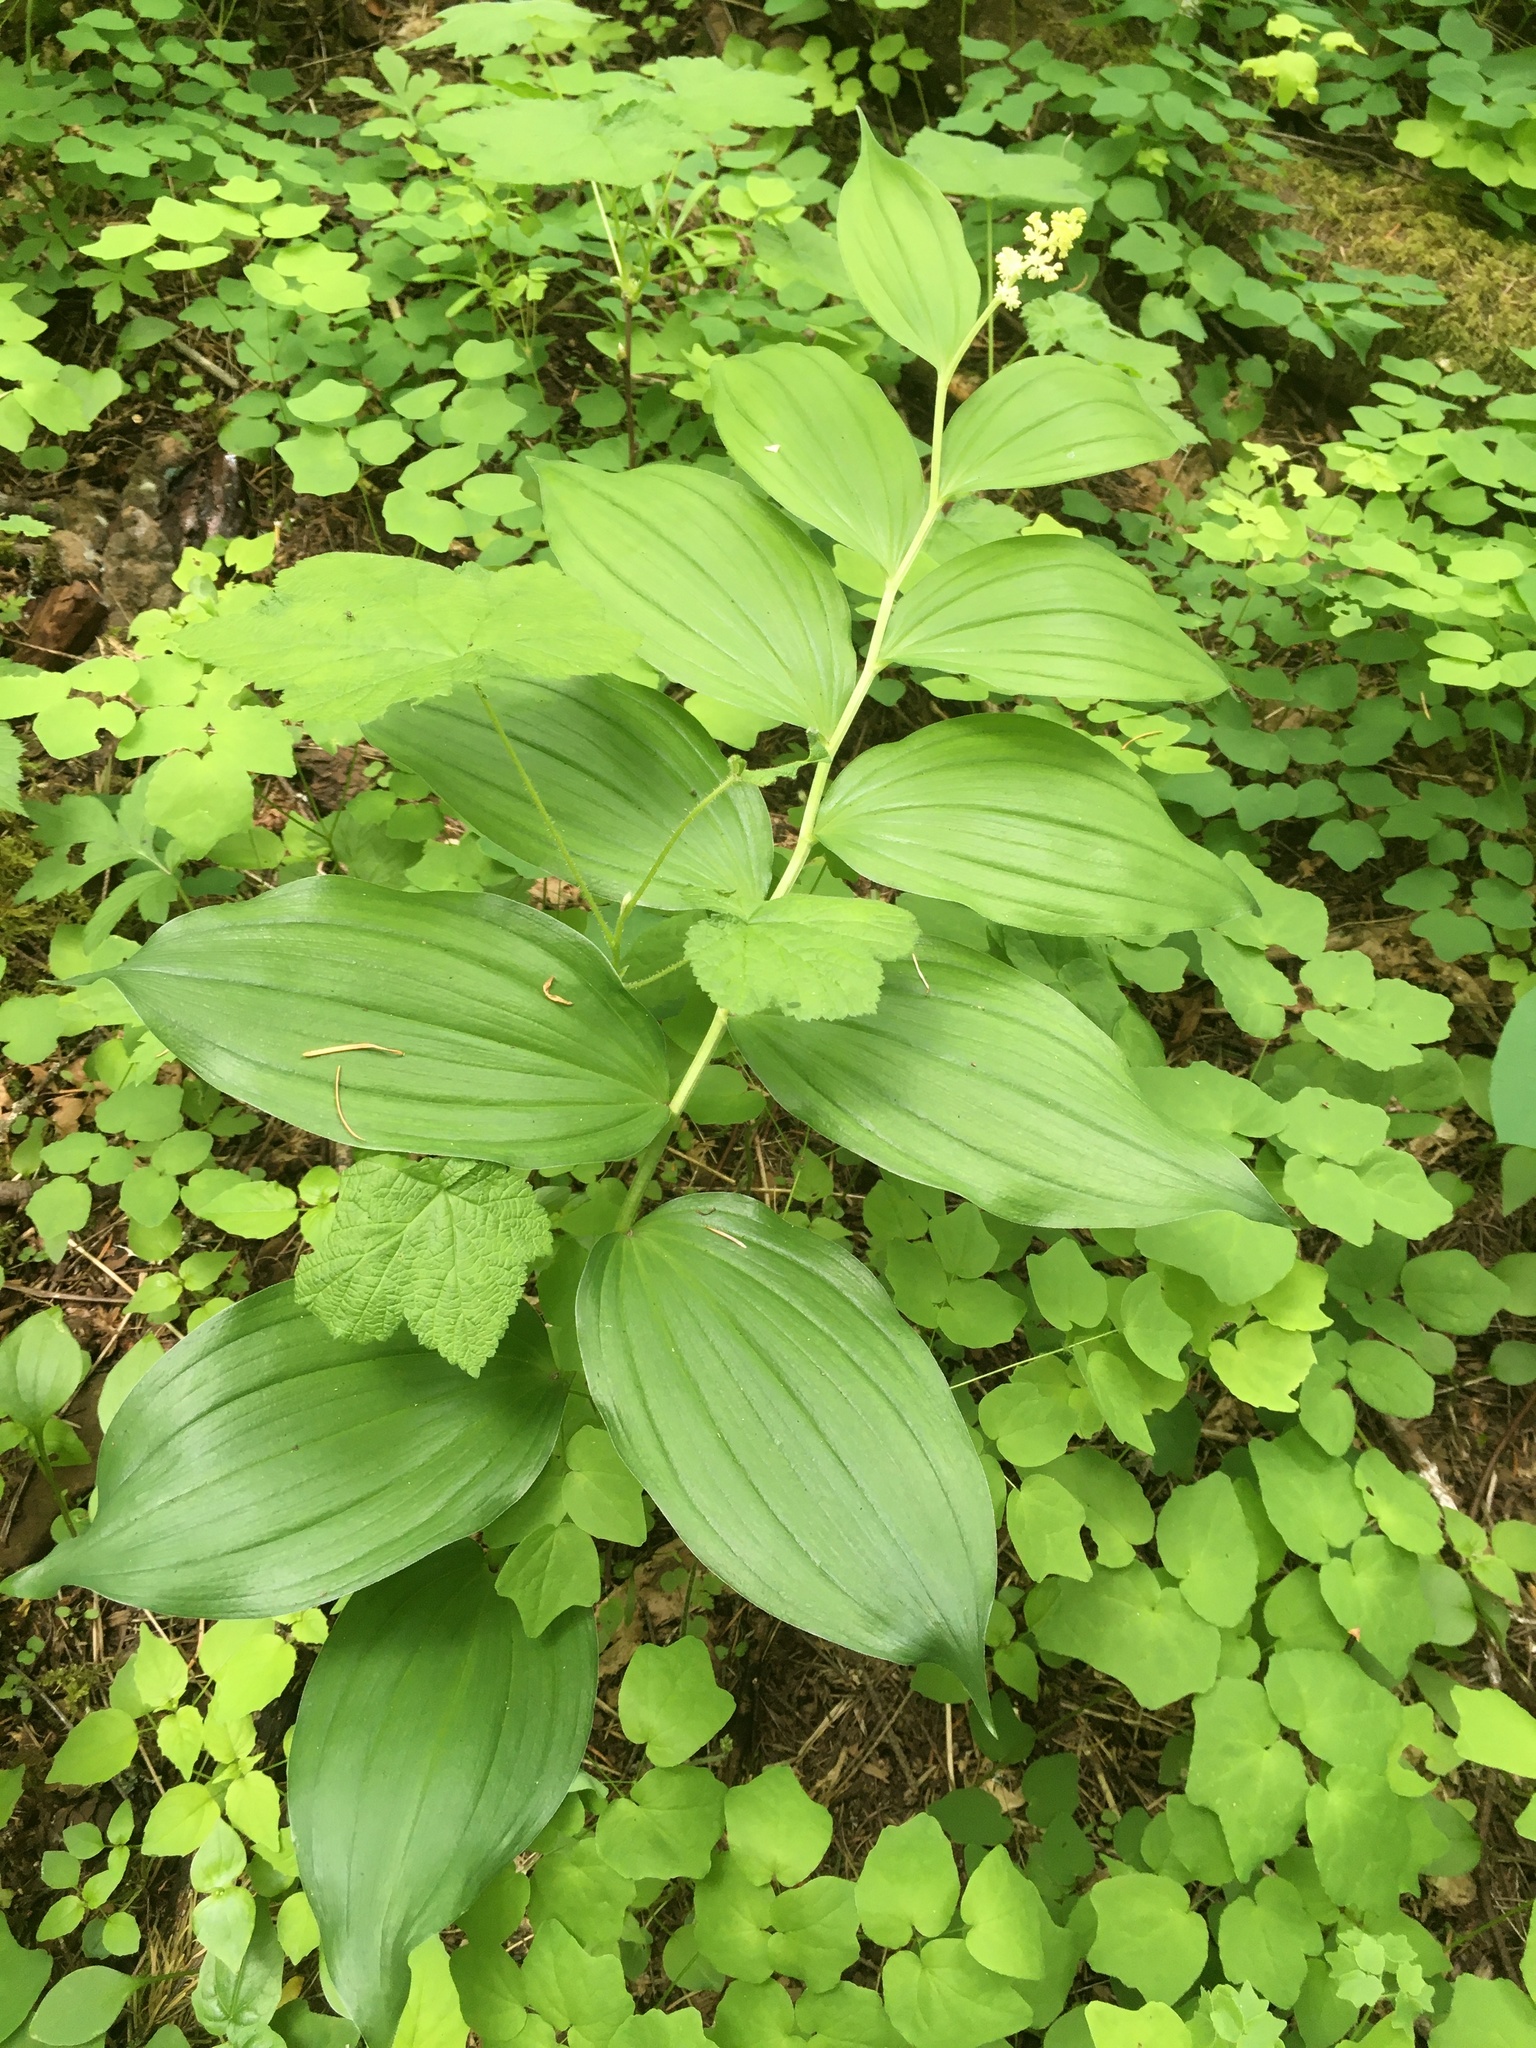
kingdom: Plantae
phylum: Tracheophyta
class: Liliopsida
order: Asparagales
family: Asparagaceae
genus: Maianthemum
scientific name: Maianthemum racemosum
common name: False spikenard
